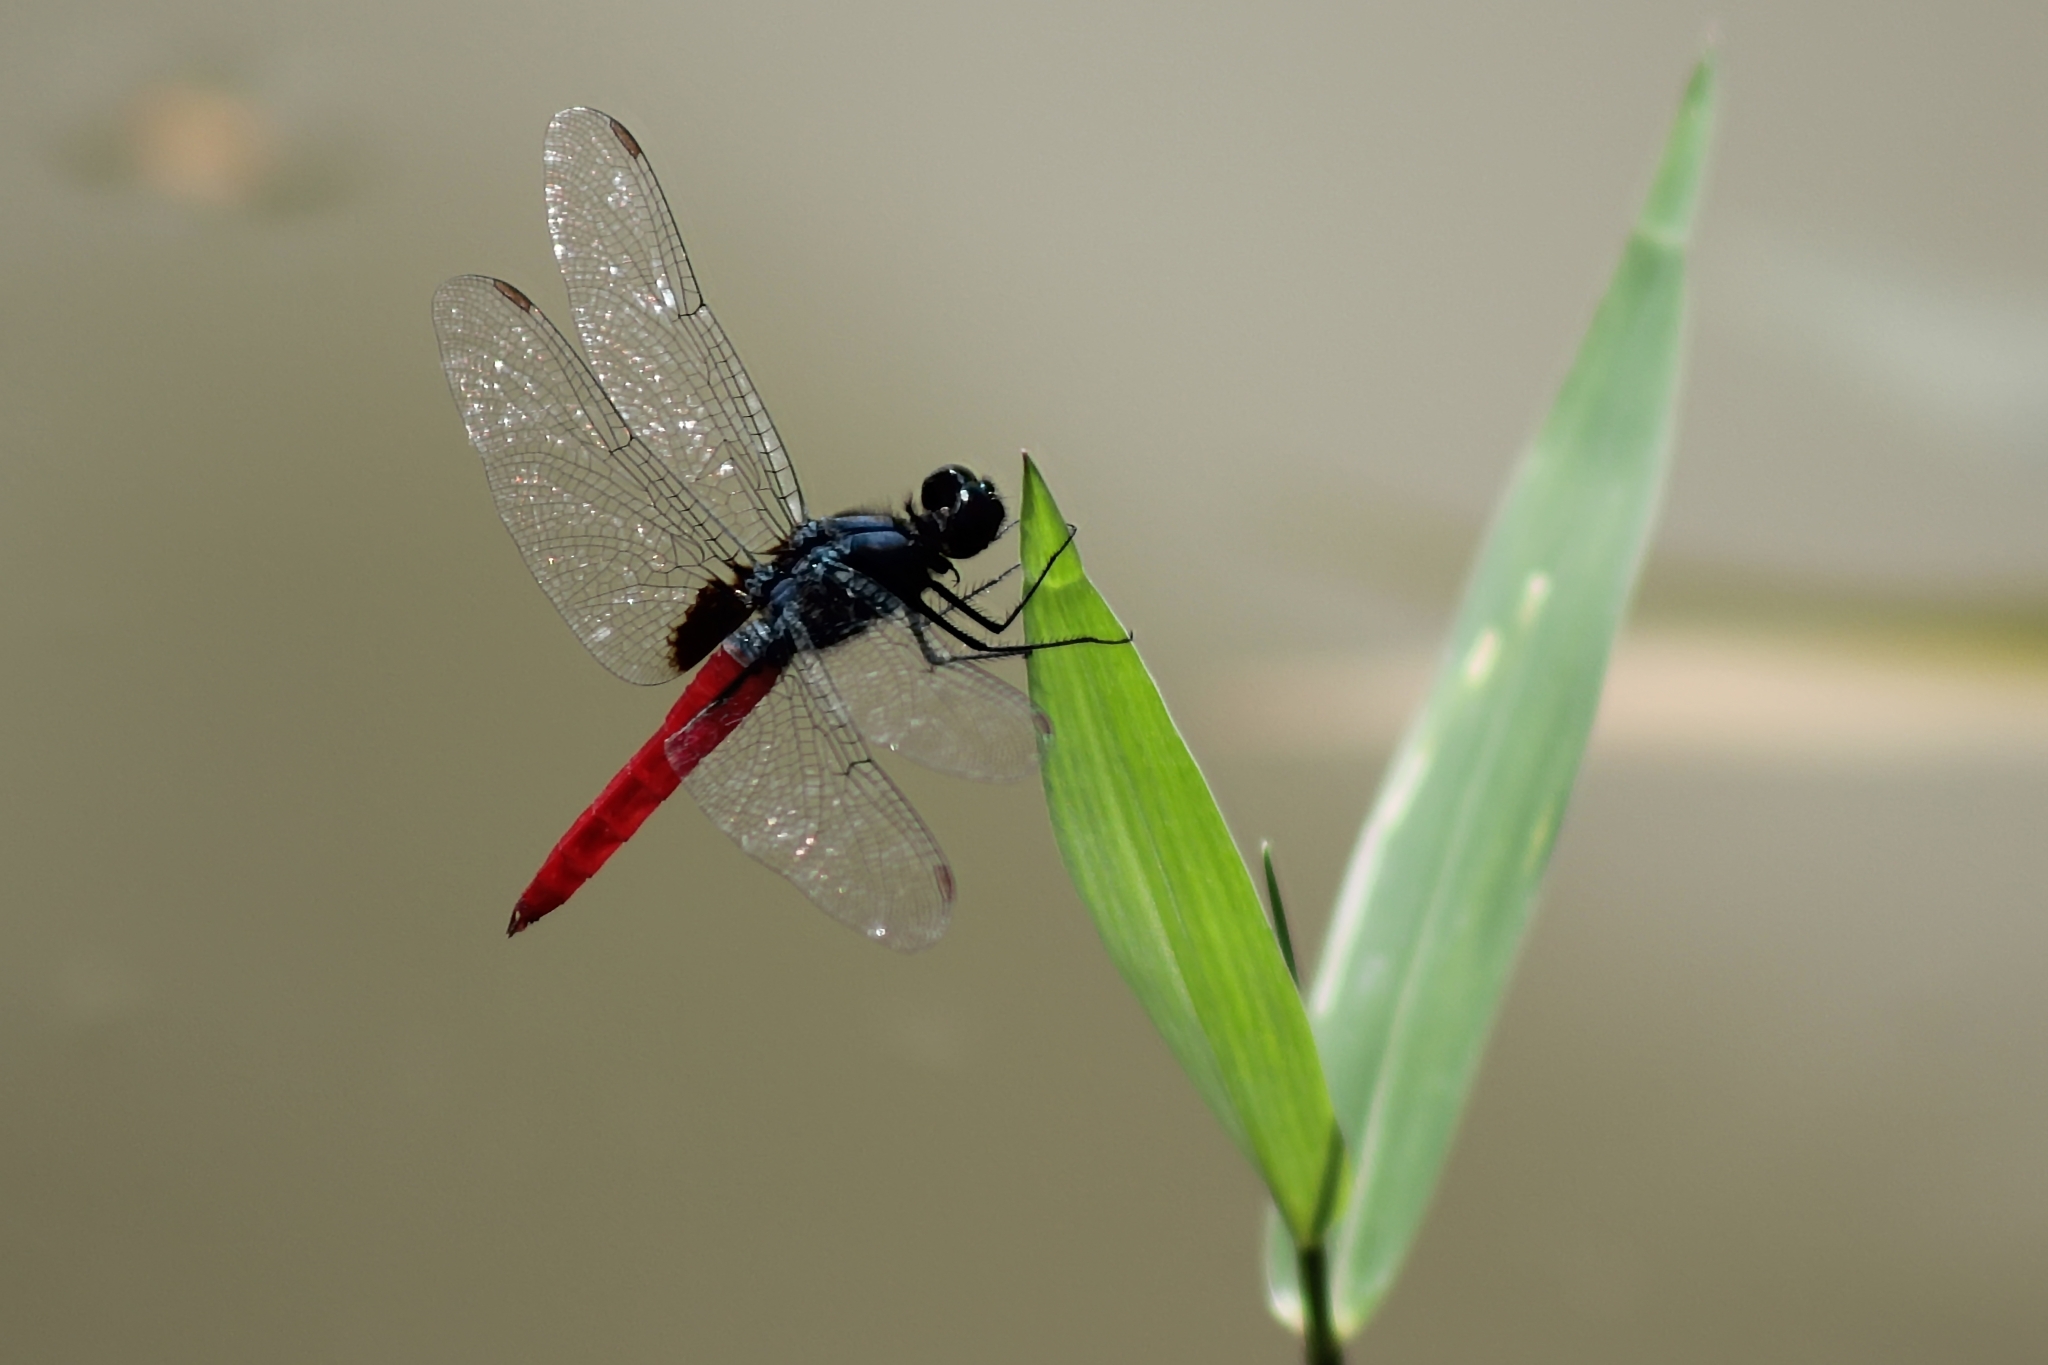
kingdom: Animalia
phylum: Arthropoda
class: Insecta
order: Odonata
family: Libellulidae
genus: Planiplax
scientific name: Planiplax sanguiniventris
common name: Mexican scarlet-tail
